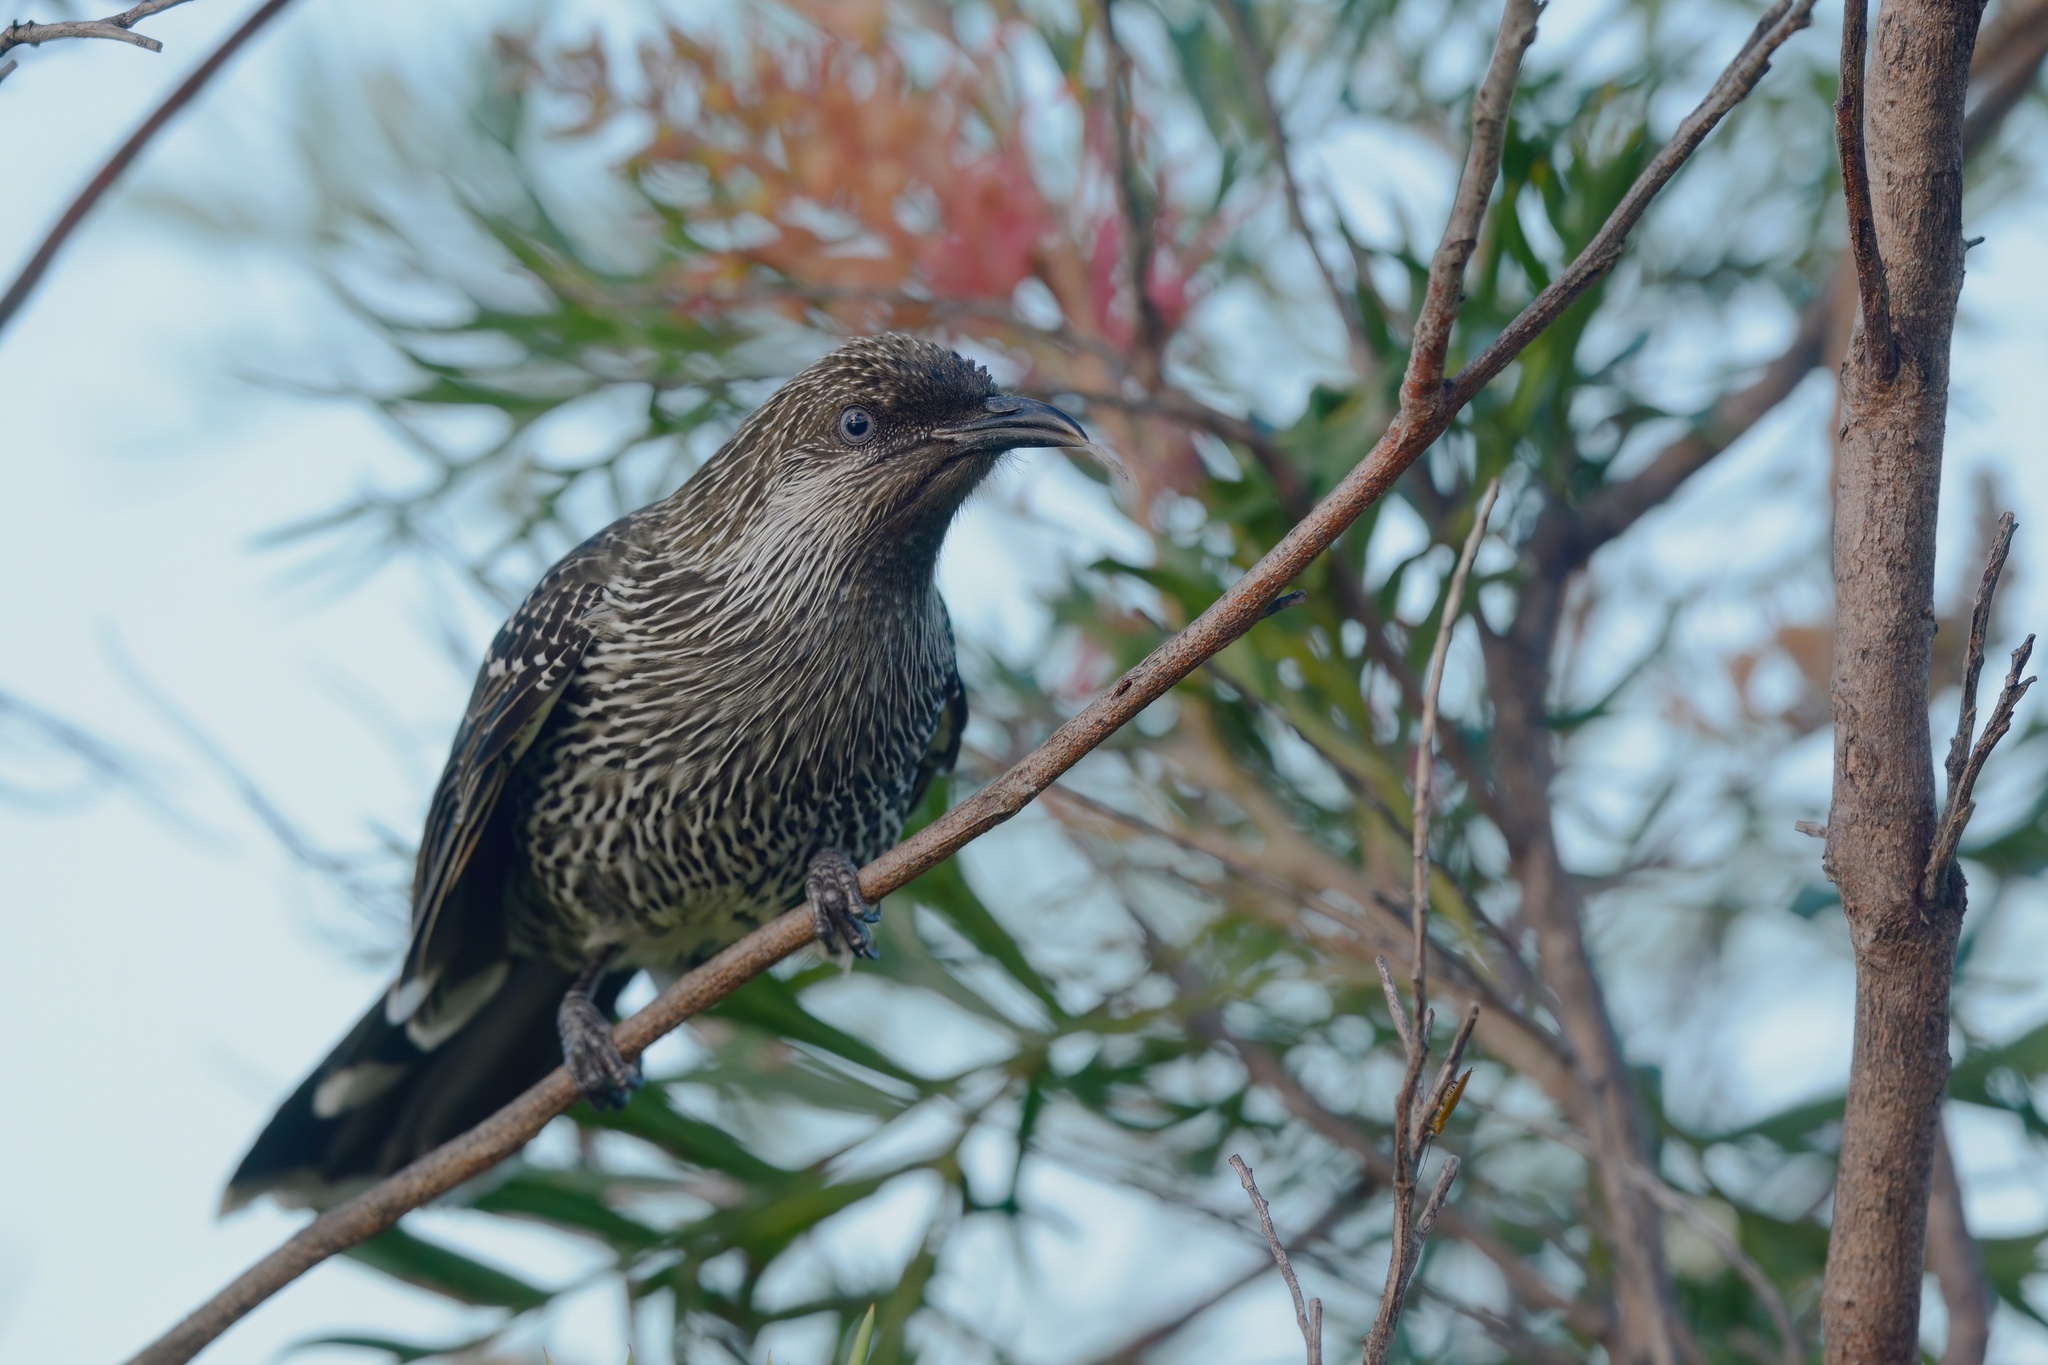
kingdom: Animalia
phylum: Chordata
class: Aves
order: Passeriformes
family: Meliphagidae
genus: Anthochaera
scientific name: Anthochaera chrysoptera
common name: Little wattlebird
